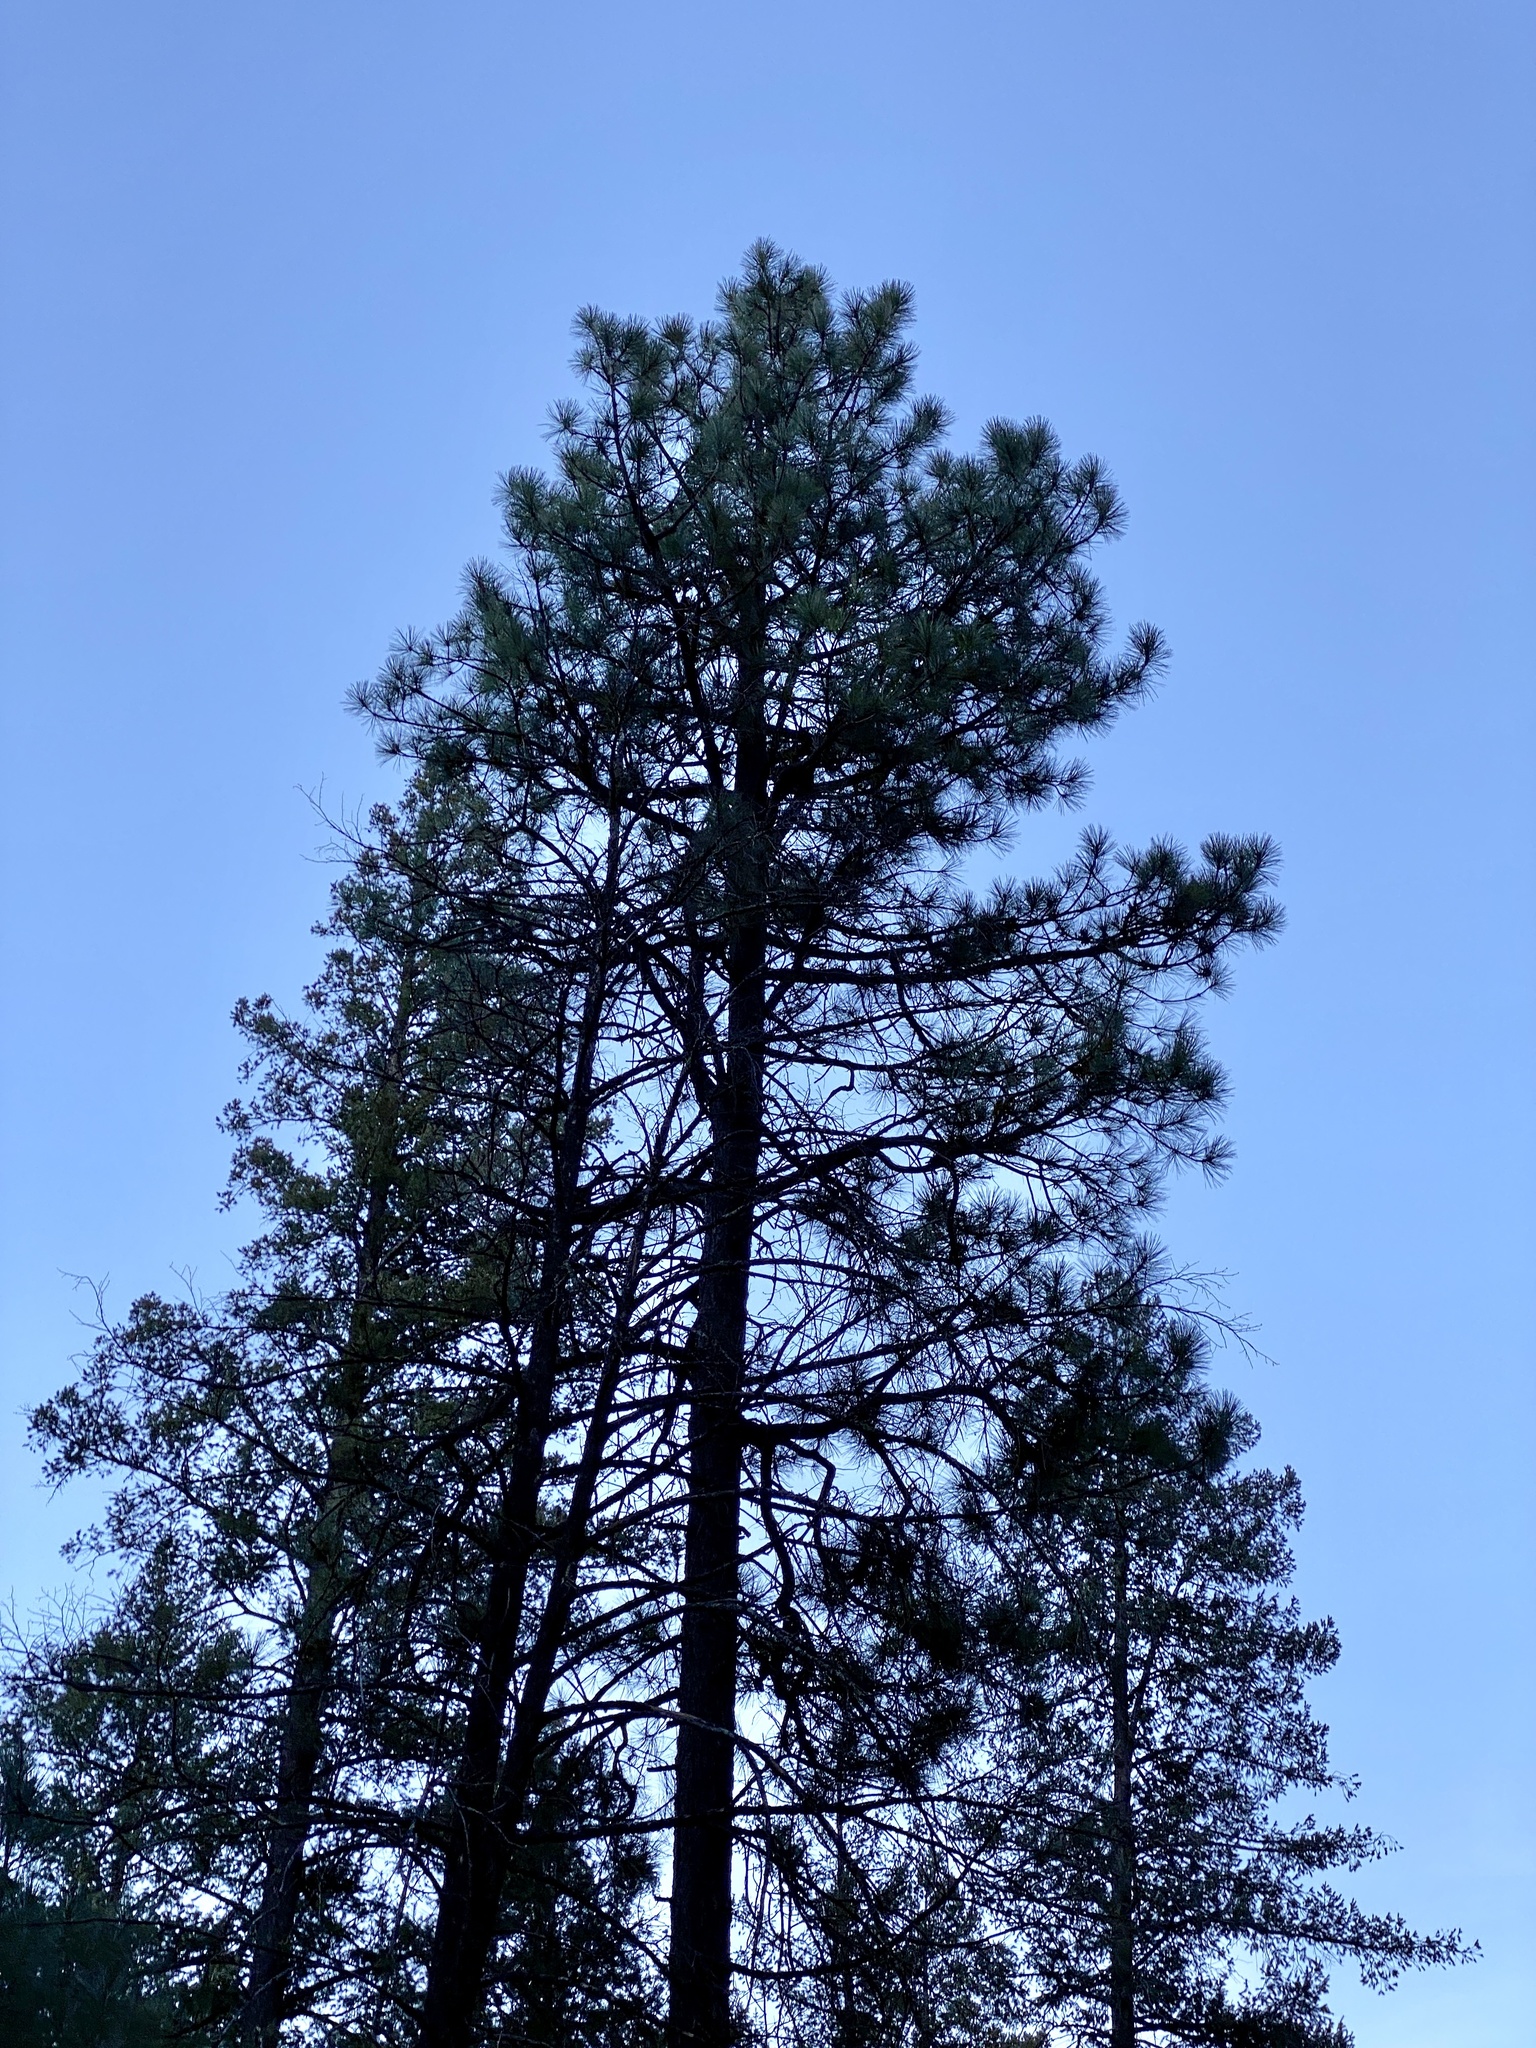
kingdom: Plantae
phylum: Tracheophyta
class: Pinopsida
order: Pinales
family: Pinaceae
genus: Pinus
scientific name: Pinus ponderosa
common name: Western yellow-pine
